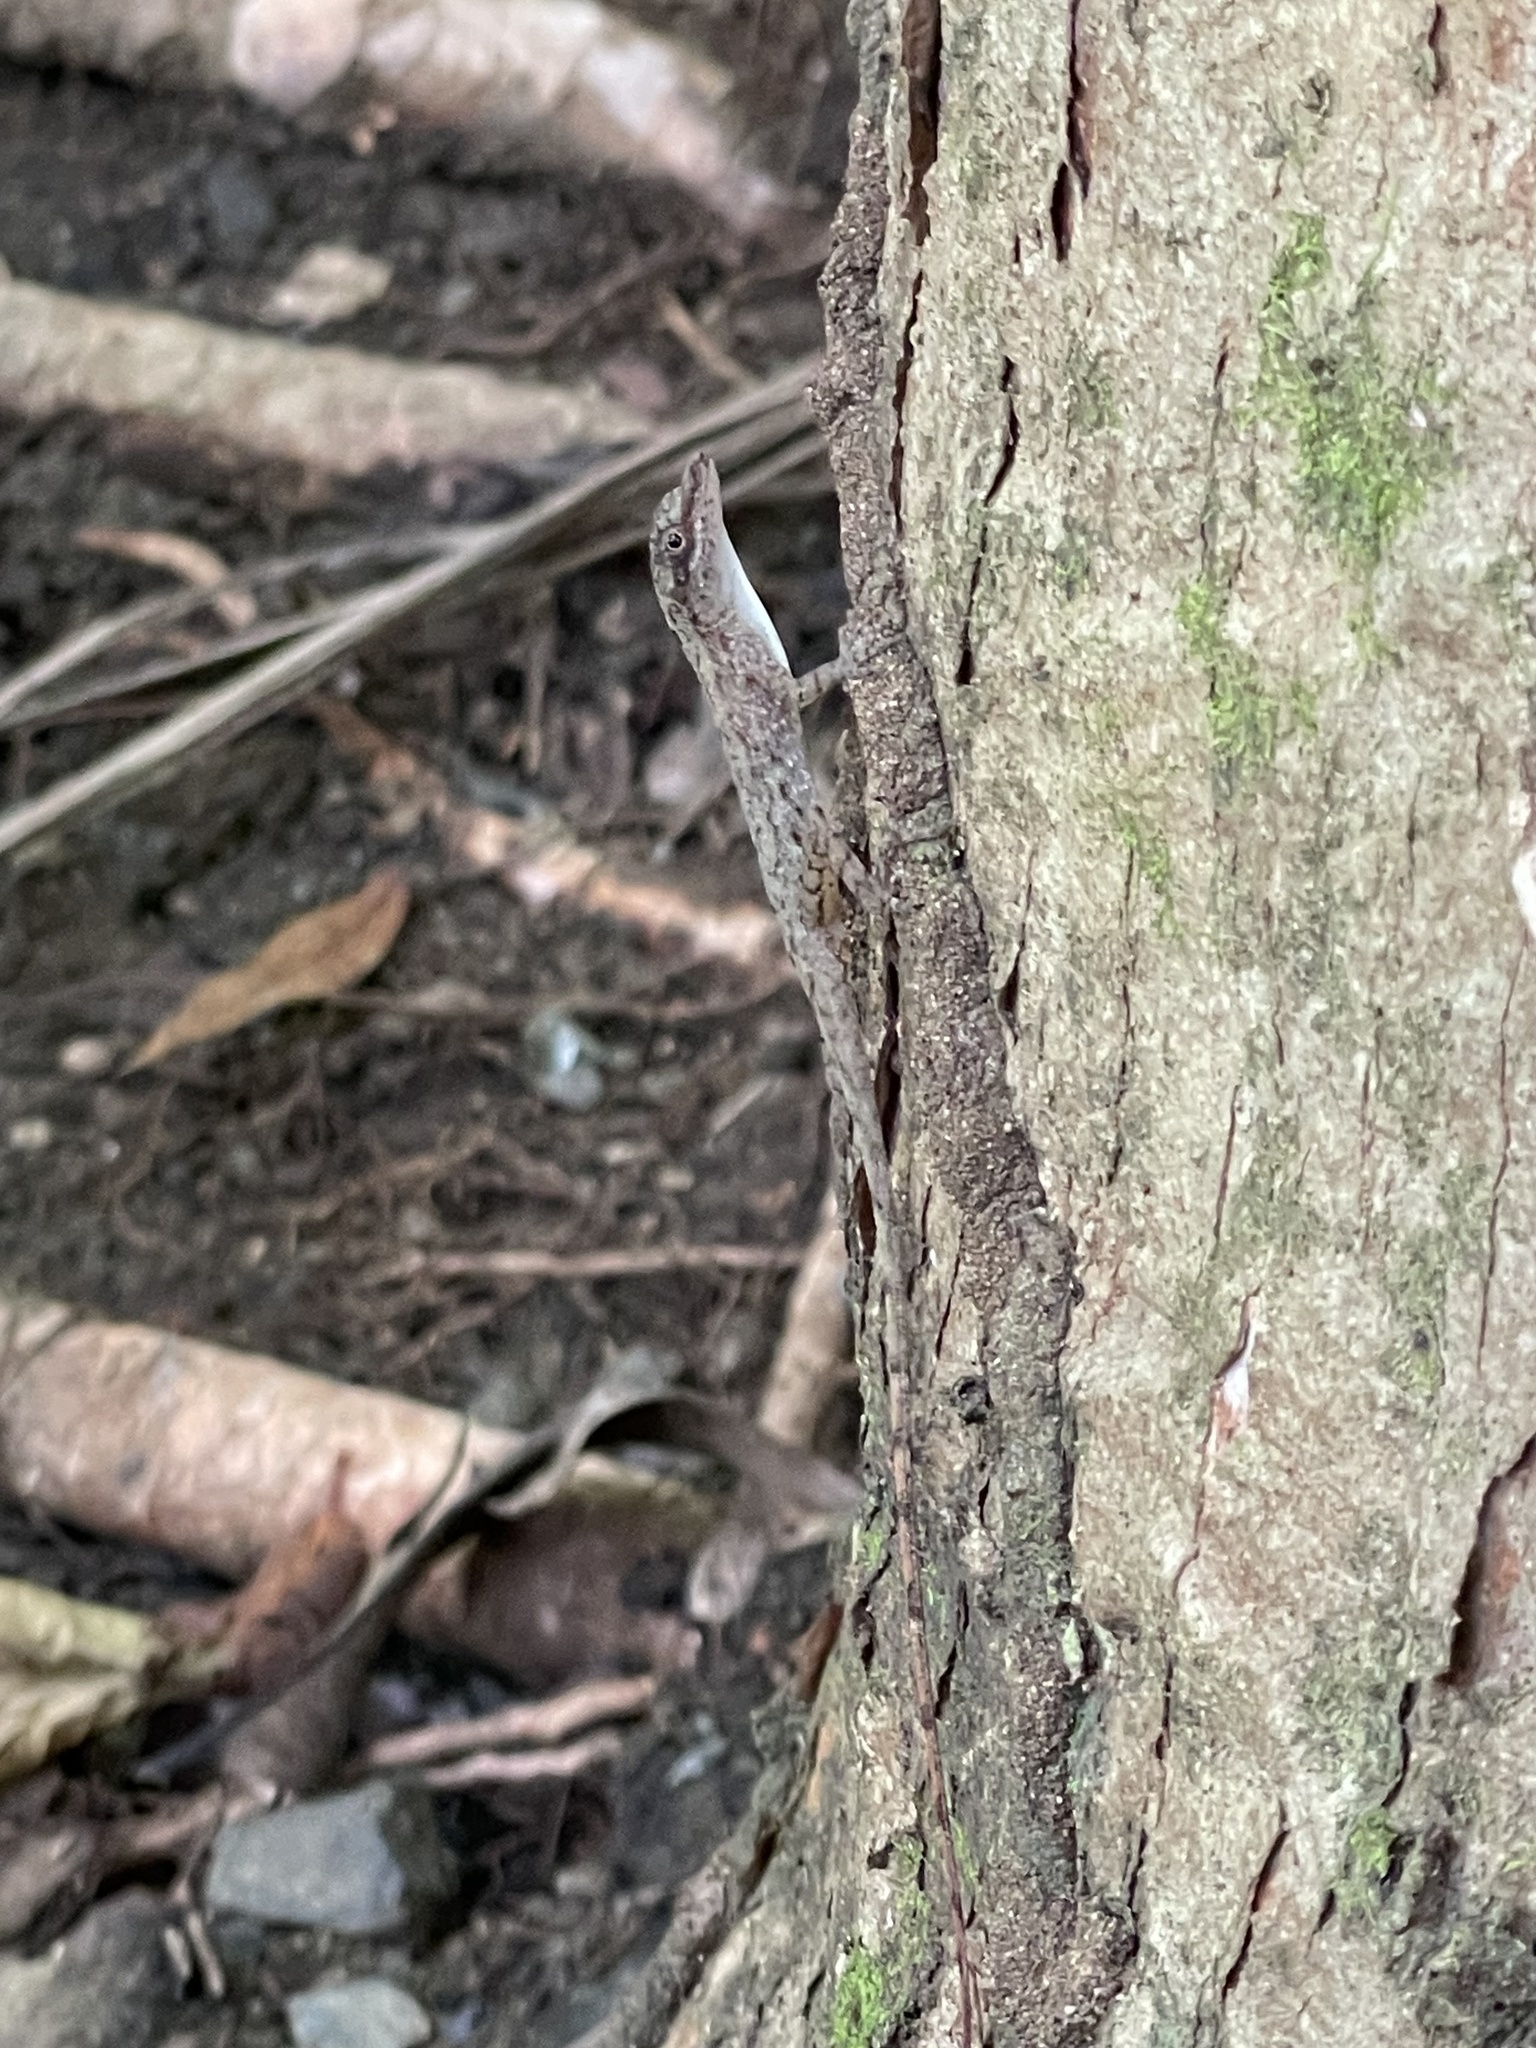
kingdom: Animalia
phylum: Chordata
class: Squamata
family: Dactyloidae
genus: Anolis
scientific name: Anolis lemurinus
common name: Ghost anole
